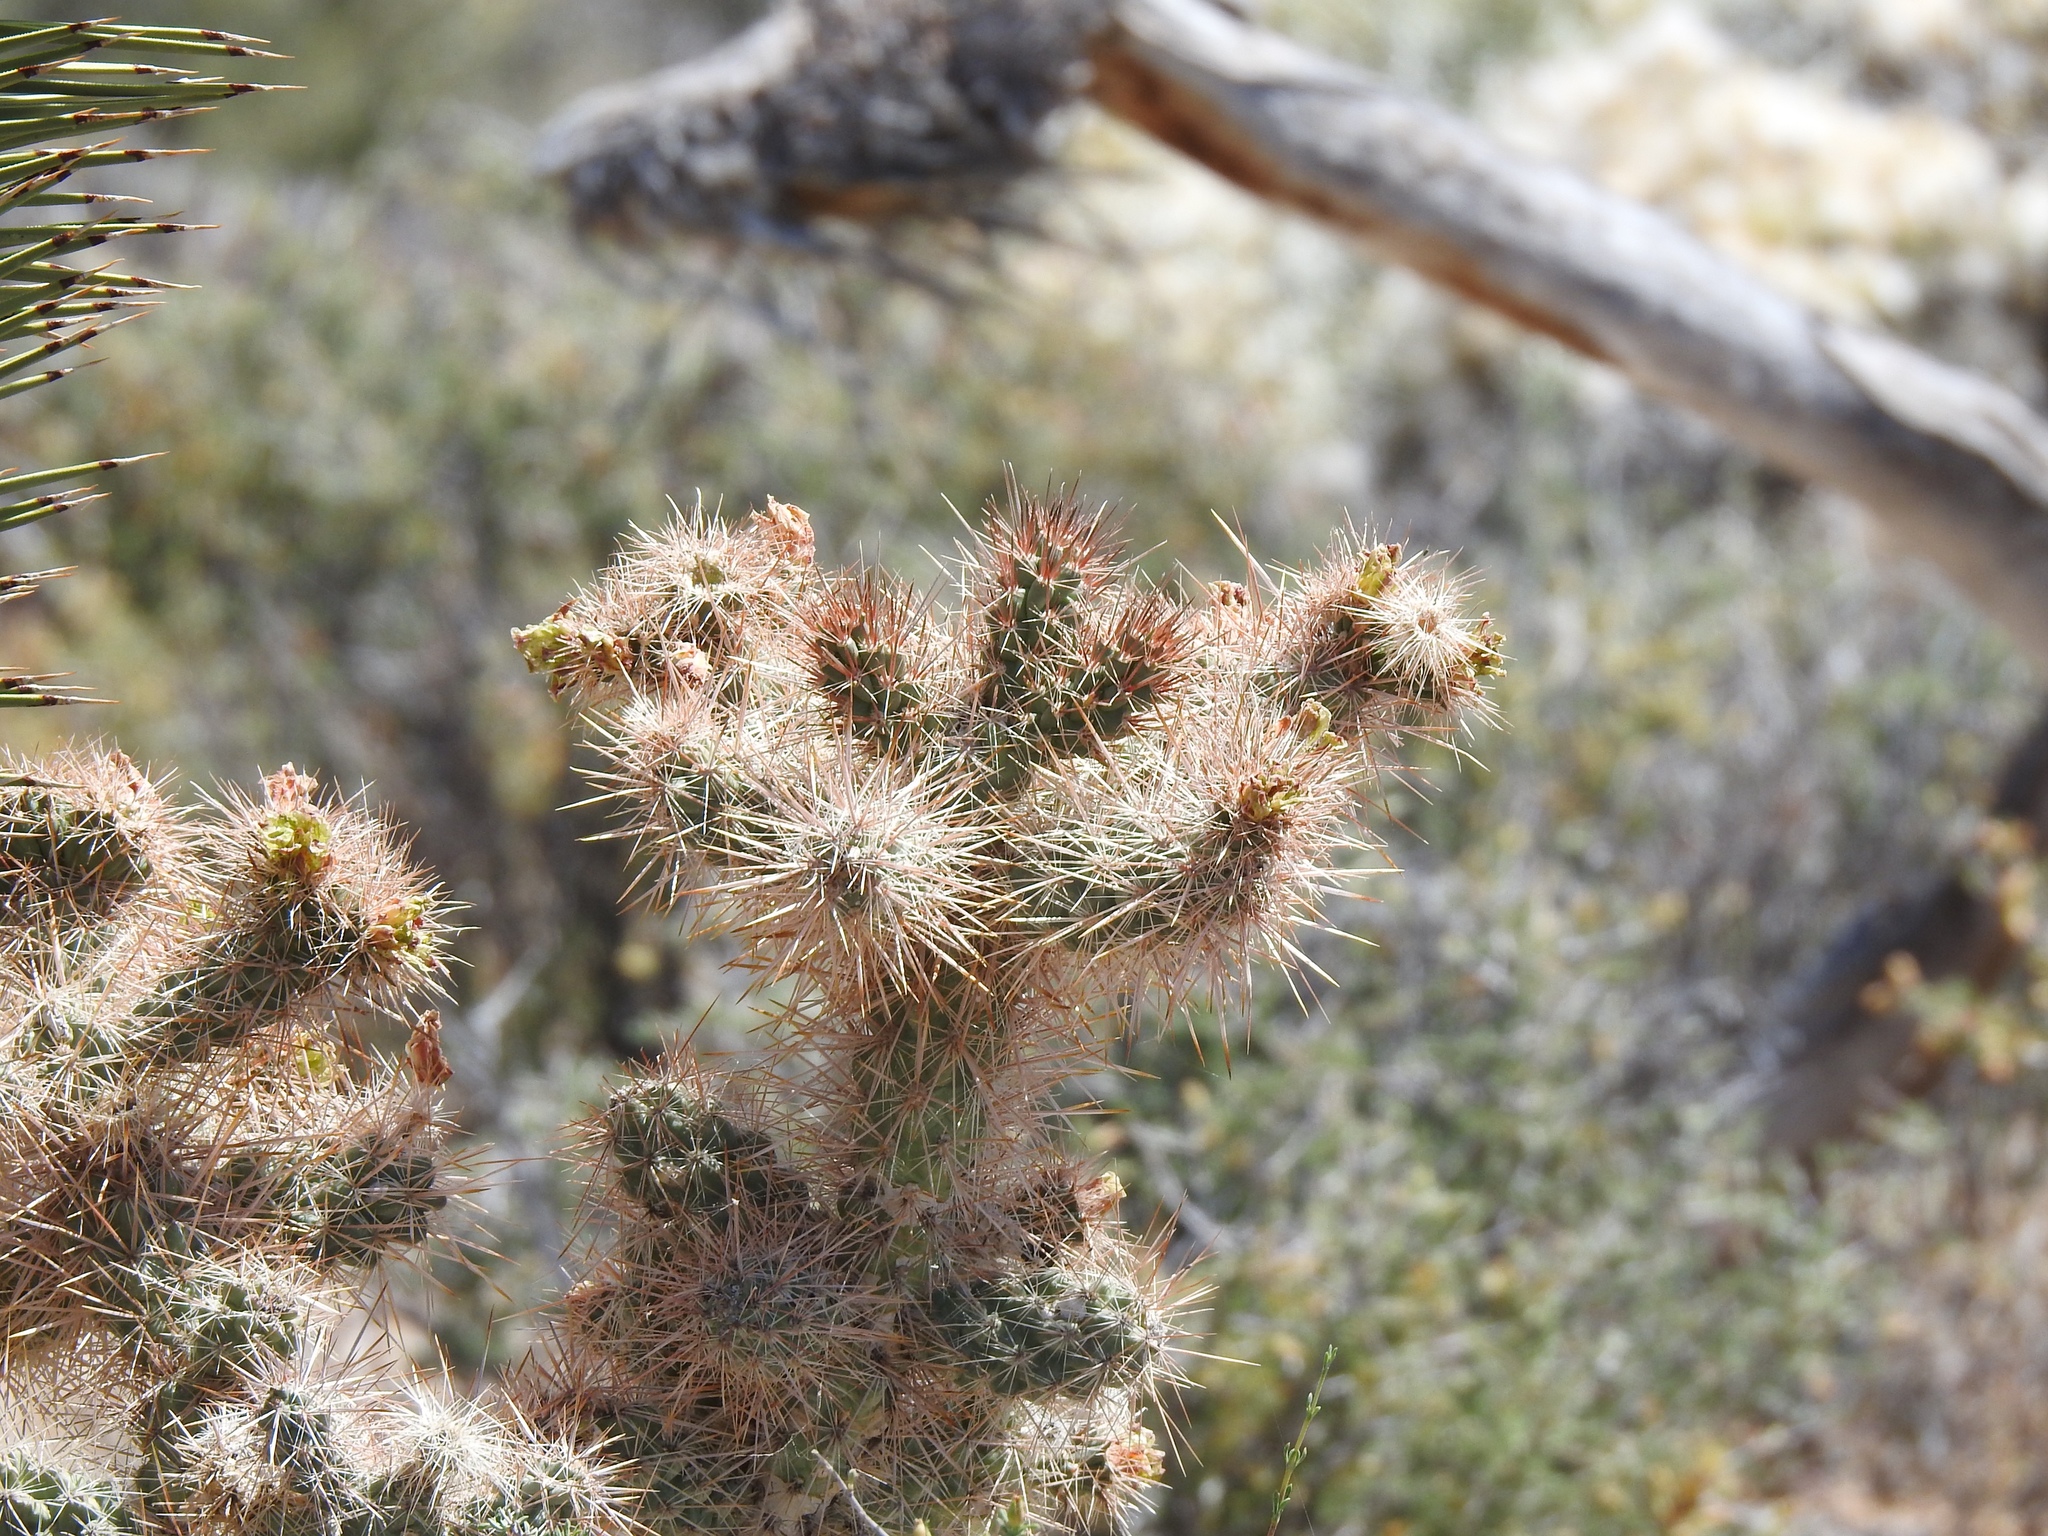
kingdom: Plantae
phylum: Tracheophyta
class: Magnoliopsida
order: Caryophyllales
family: Cactaceae
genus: Cylindropuntia
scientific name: Cylindropuntia echinocarpa
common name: Ground cholla
